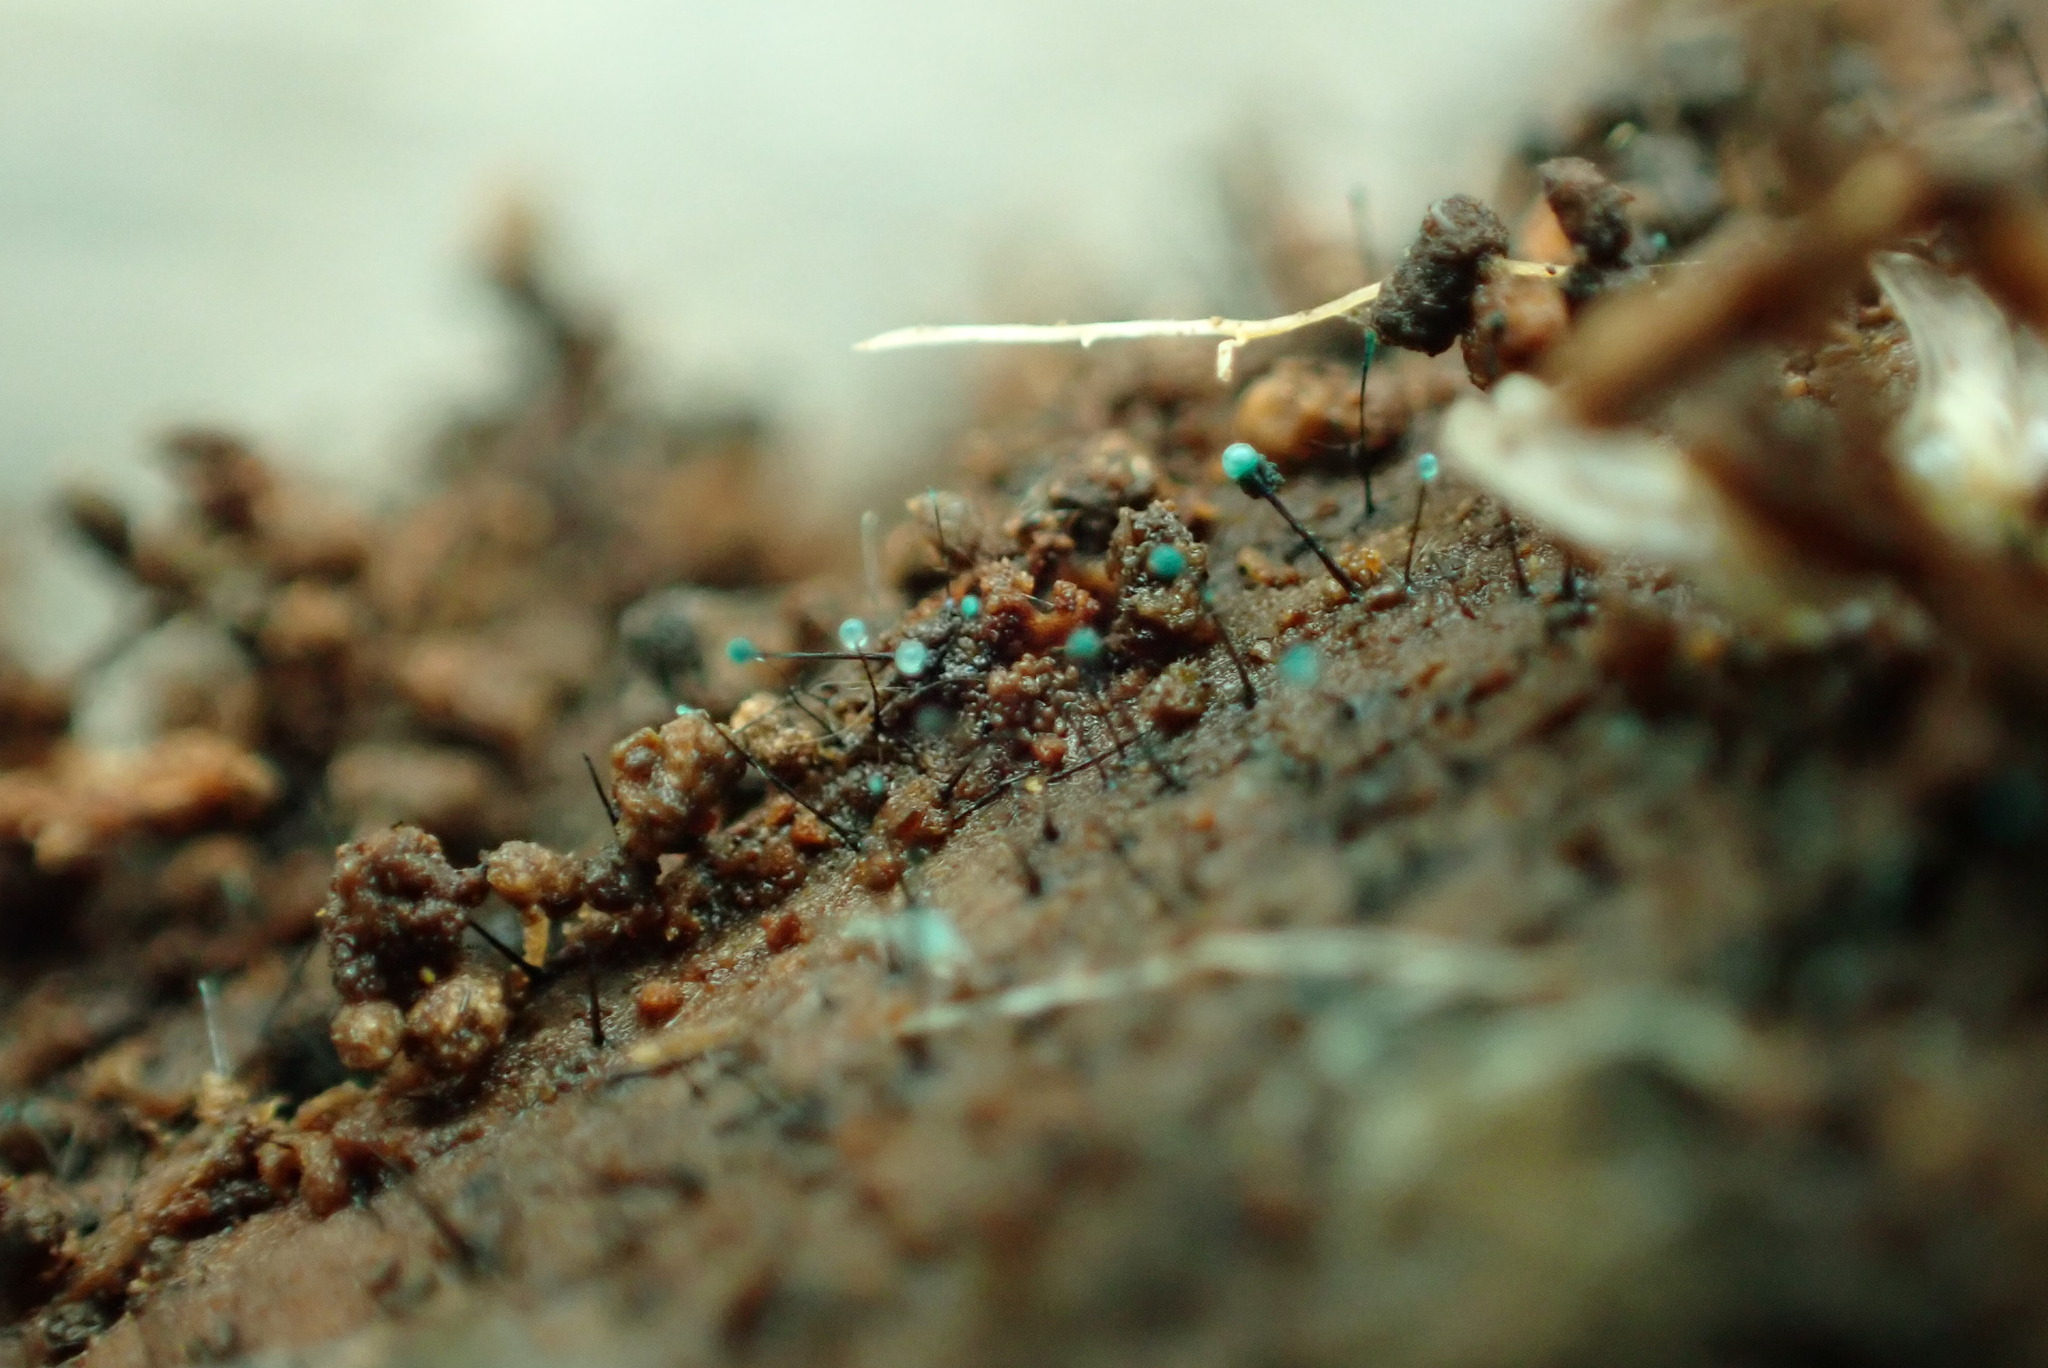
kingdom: Fungi
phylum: Ascomycota
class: Leotiomycetes
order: Leotiales
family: Tympanidaceae
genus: Dendrostilbella
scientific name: Dendrostilbella smaragdina
